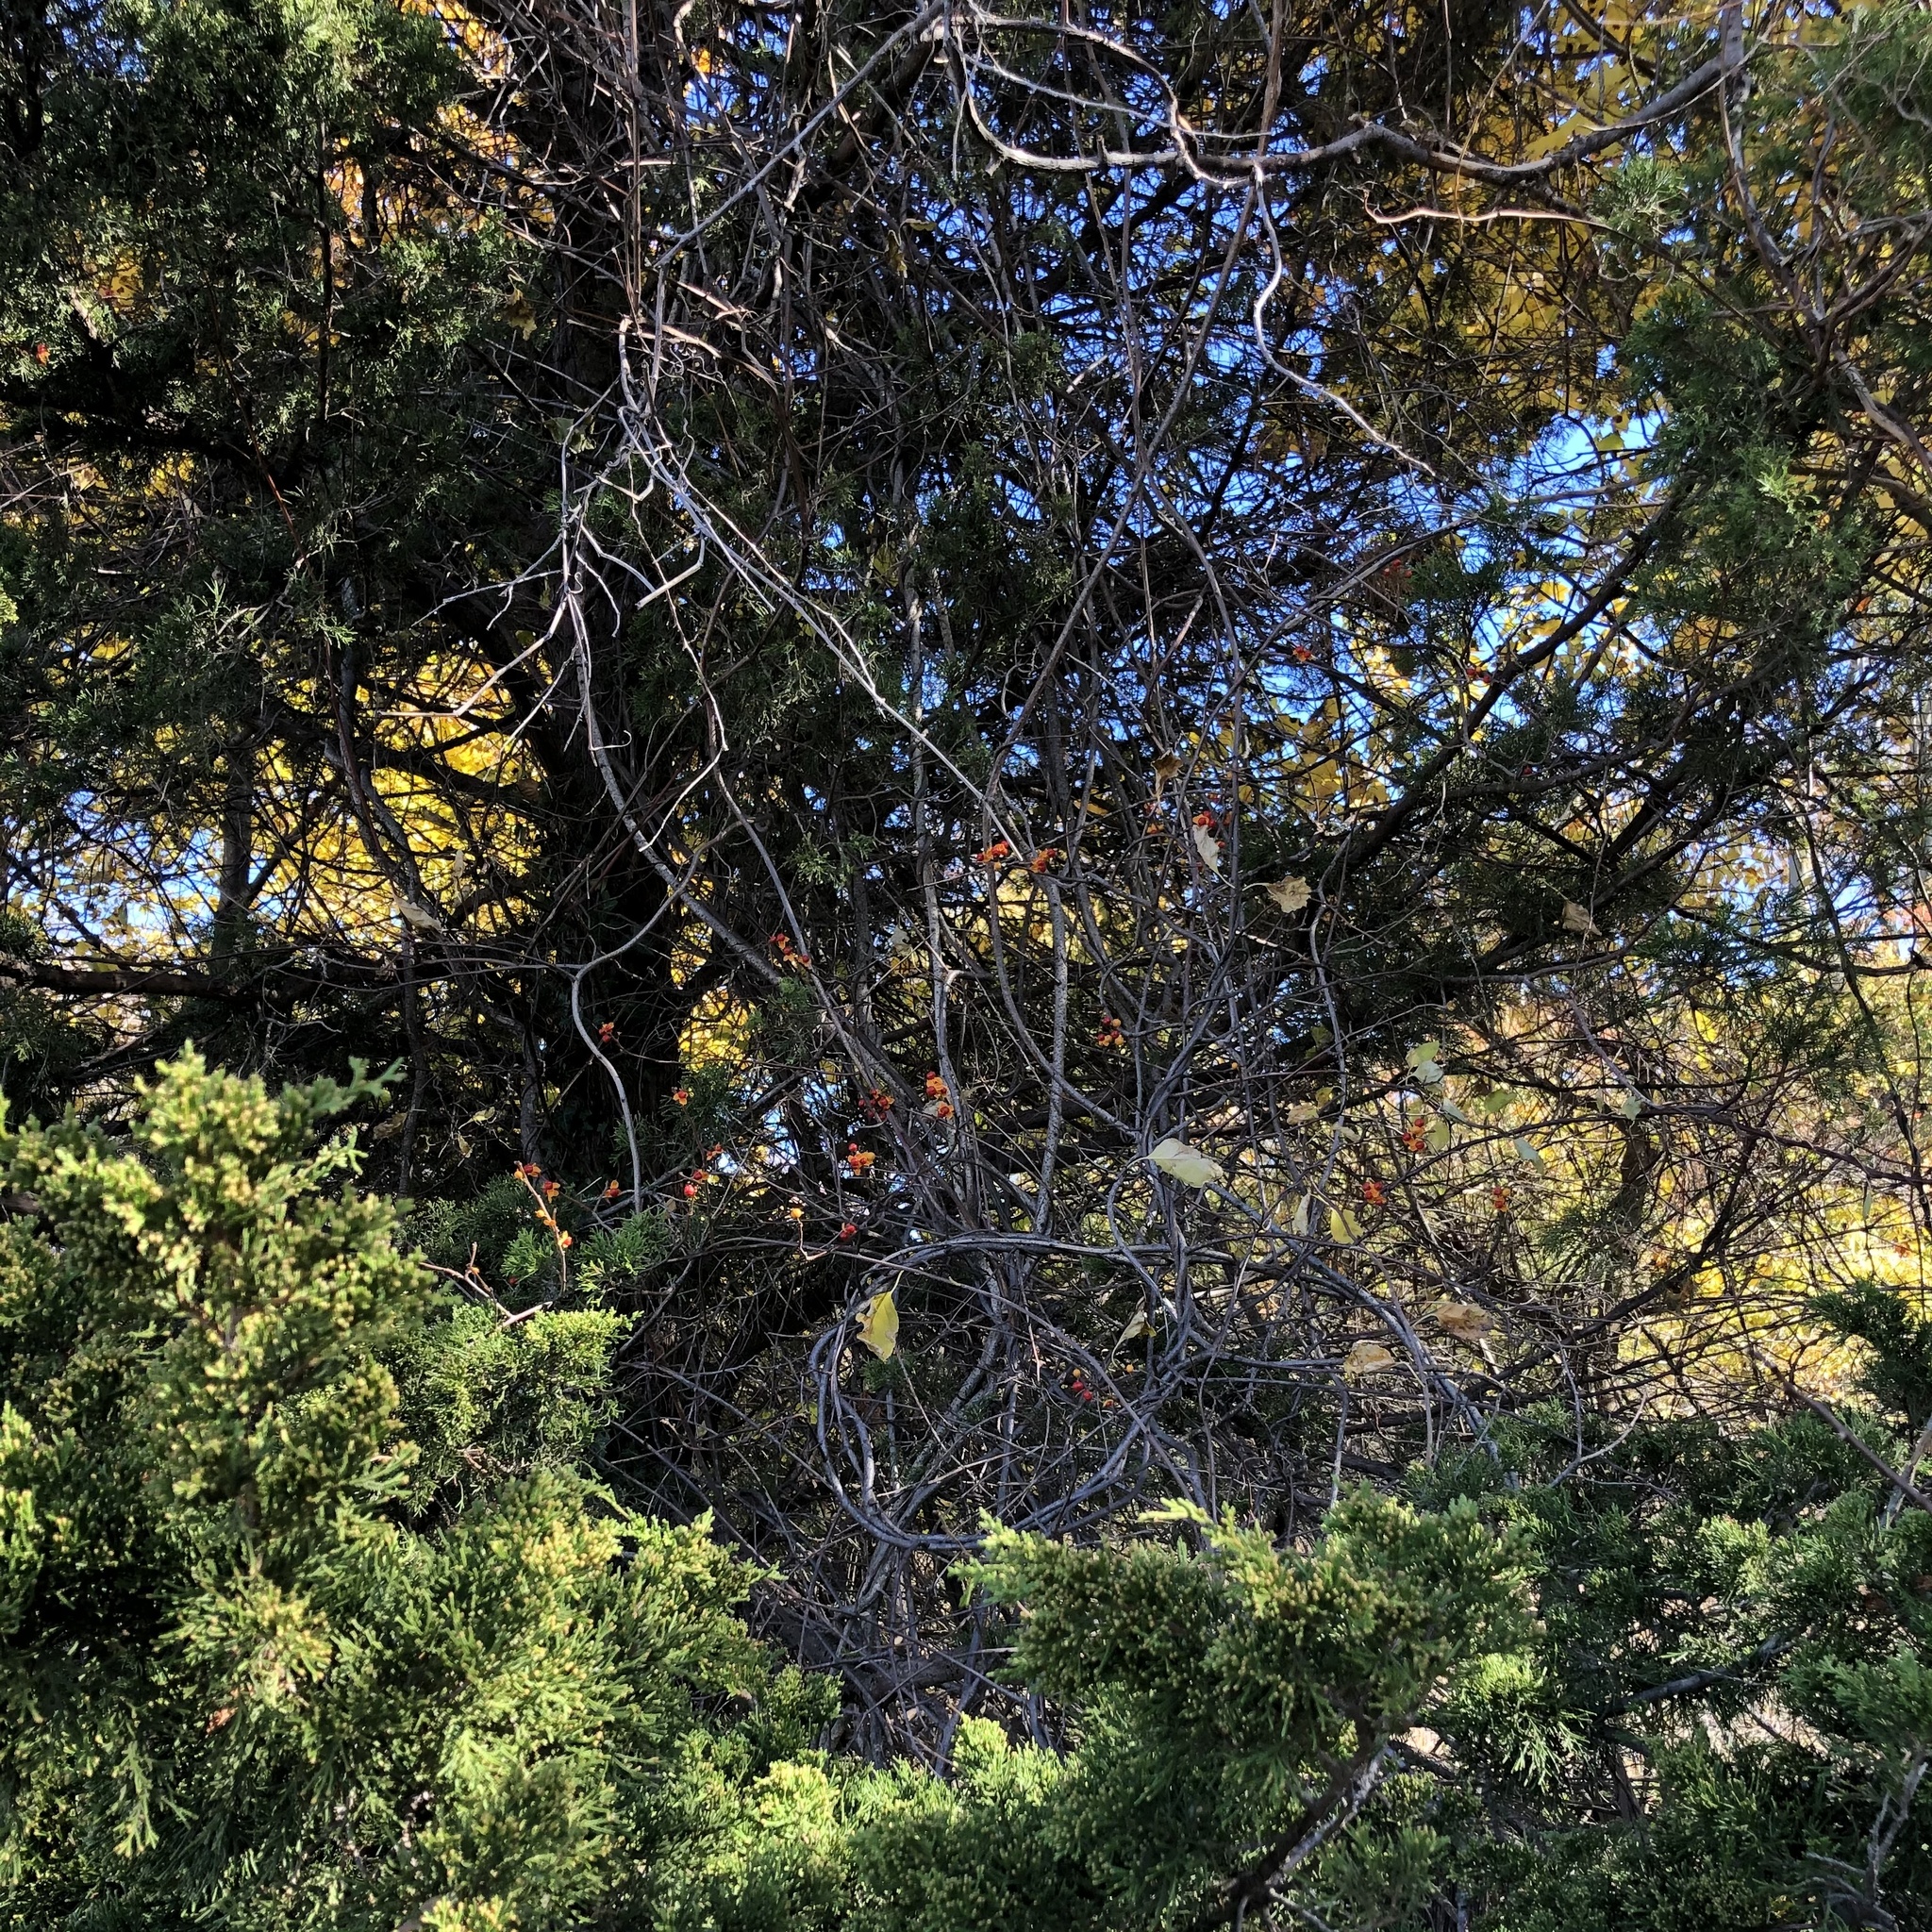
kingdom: Plantae
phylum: Tracheophyta
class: Magnoliopsida
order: Celastrales
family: Celastraceae
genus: Celastrus
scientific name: Celastrus orbiculatus
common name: Oriental bittersweet
